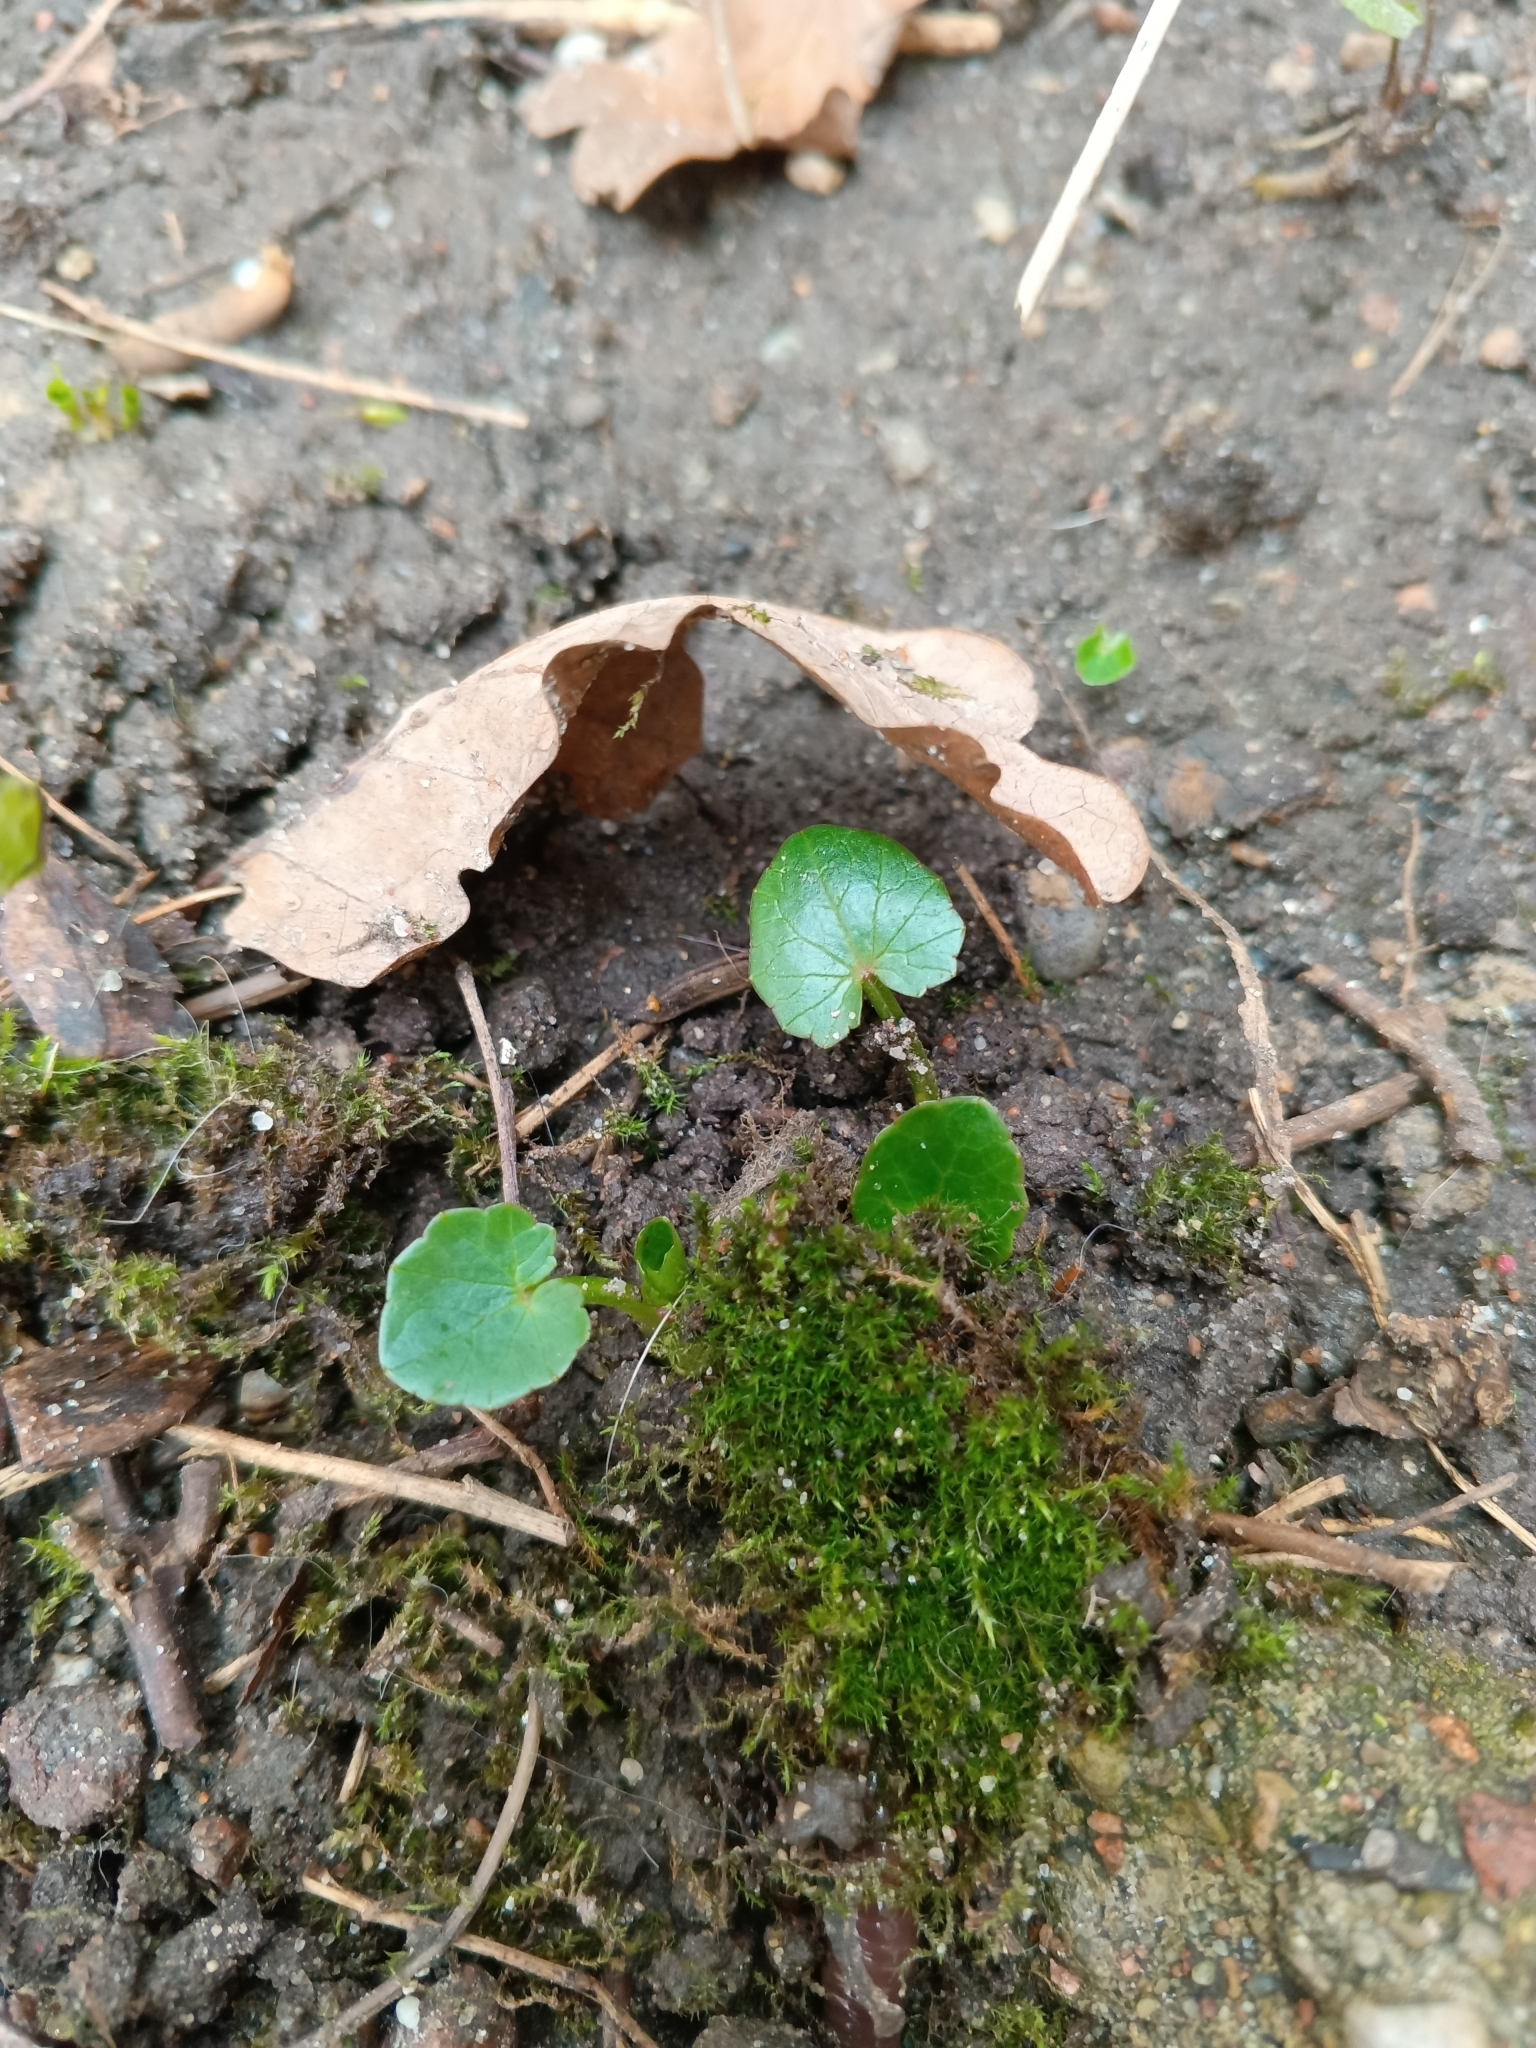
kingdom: Plantae
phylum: Tracheophyta
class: Magnoliopsida
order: Ranunculales
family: Ranunculaceae
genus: Ficaria
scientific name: Ficaria verna
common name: Lesser celandine
